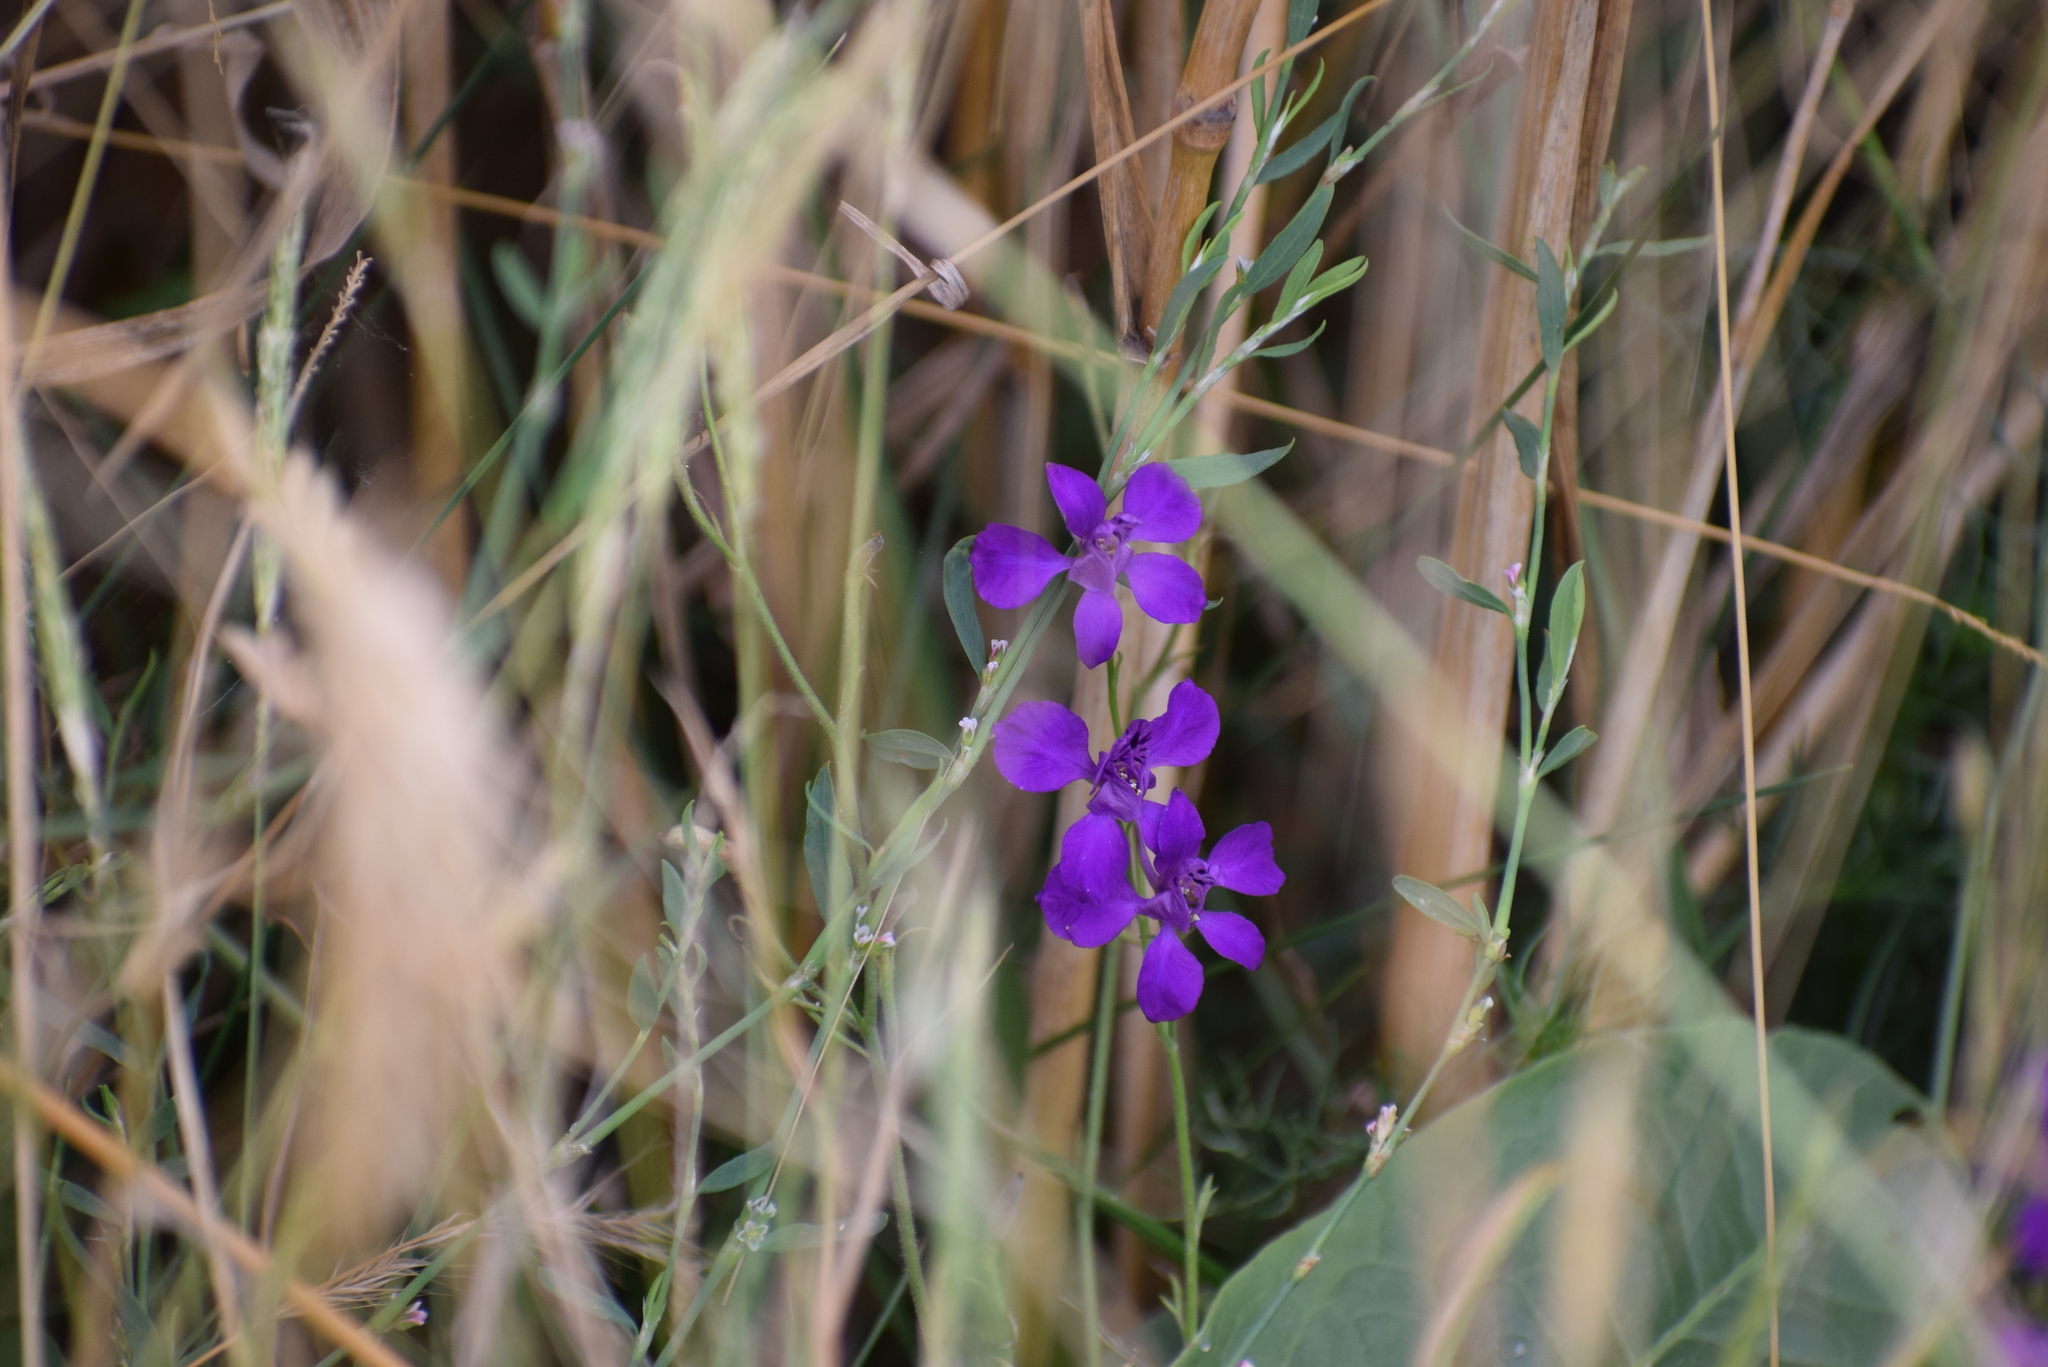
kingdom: Plantae
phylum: Tracheophyta
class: Magnoliopsida
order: Ranunculales
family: Ranunculaceae
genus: Delphinium
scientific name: Delphinium consolida
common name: Branching larkspur
